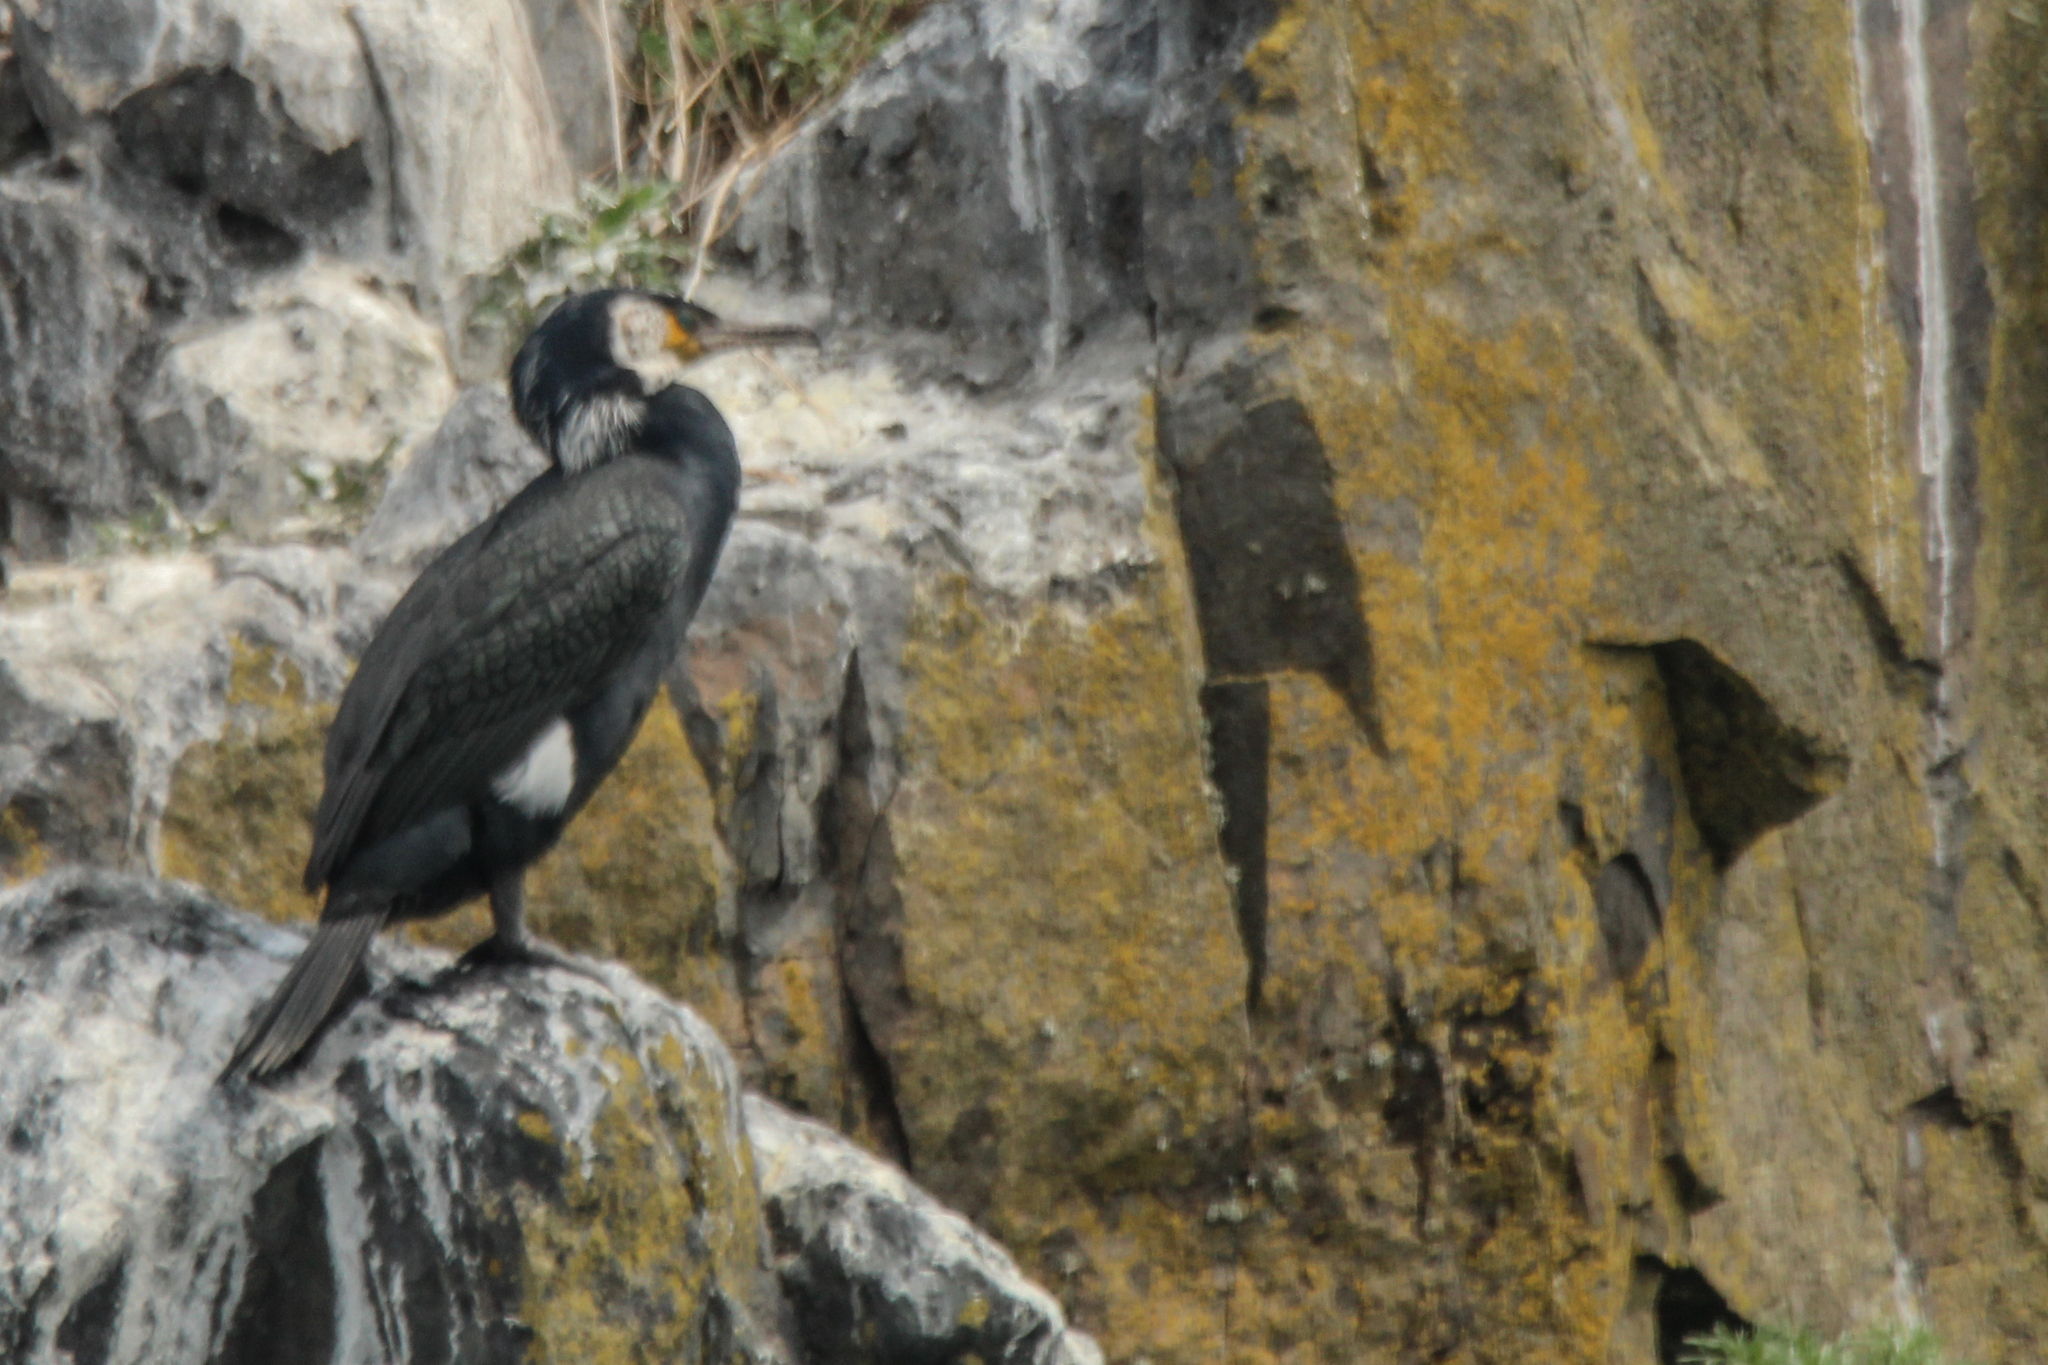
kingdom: Animalia
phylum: Chordata
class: Aves
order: Suliformes
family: Phalacrocoracidae
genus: Phalacrocorax
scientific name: Phalacrocorax capillatus
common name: Japanese cormorant
